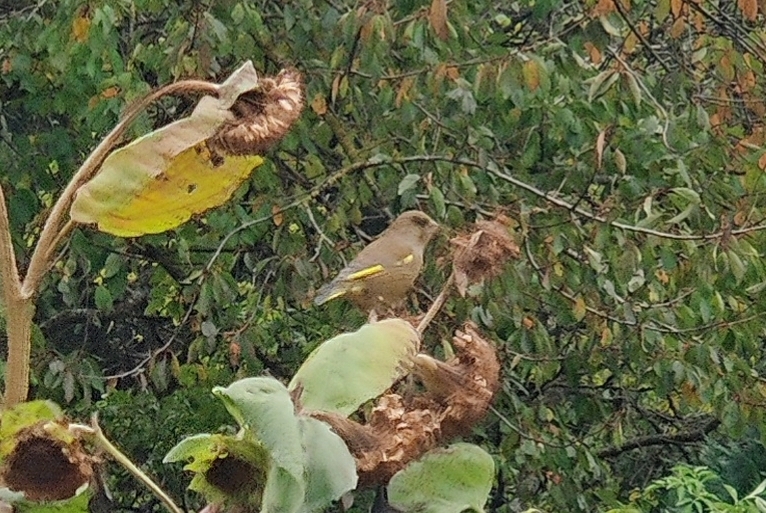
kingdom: Plantae
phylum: Tracheophyta
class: Liliopsida
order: Poales
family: Poaceae
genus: Chloris
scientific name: Chloris chloris
